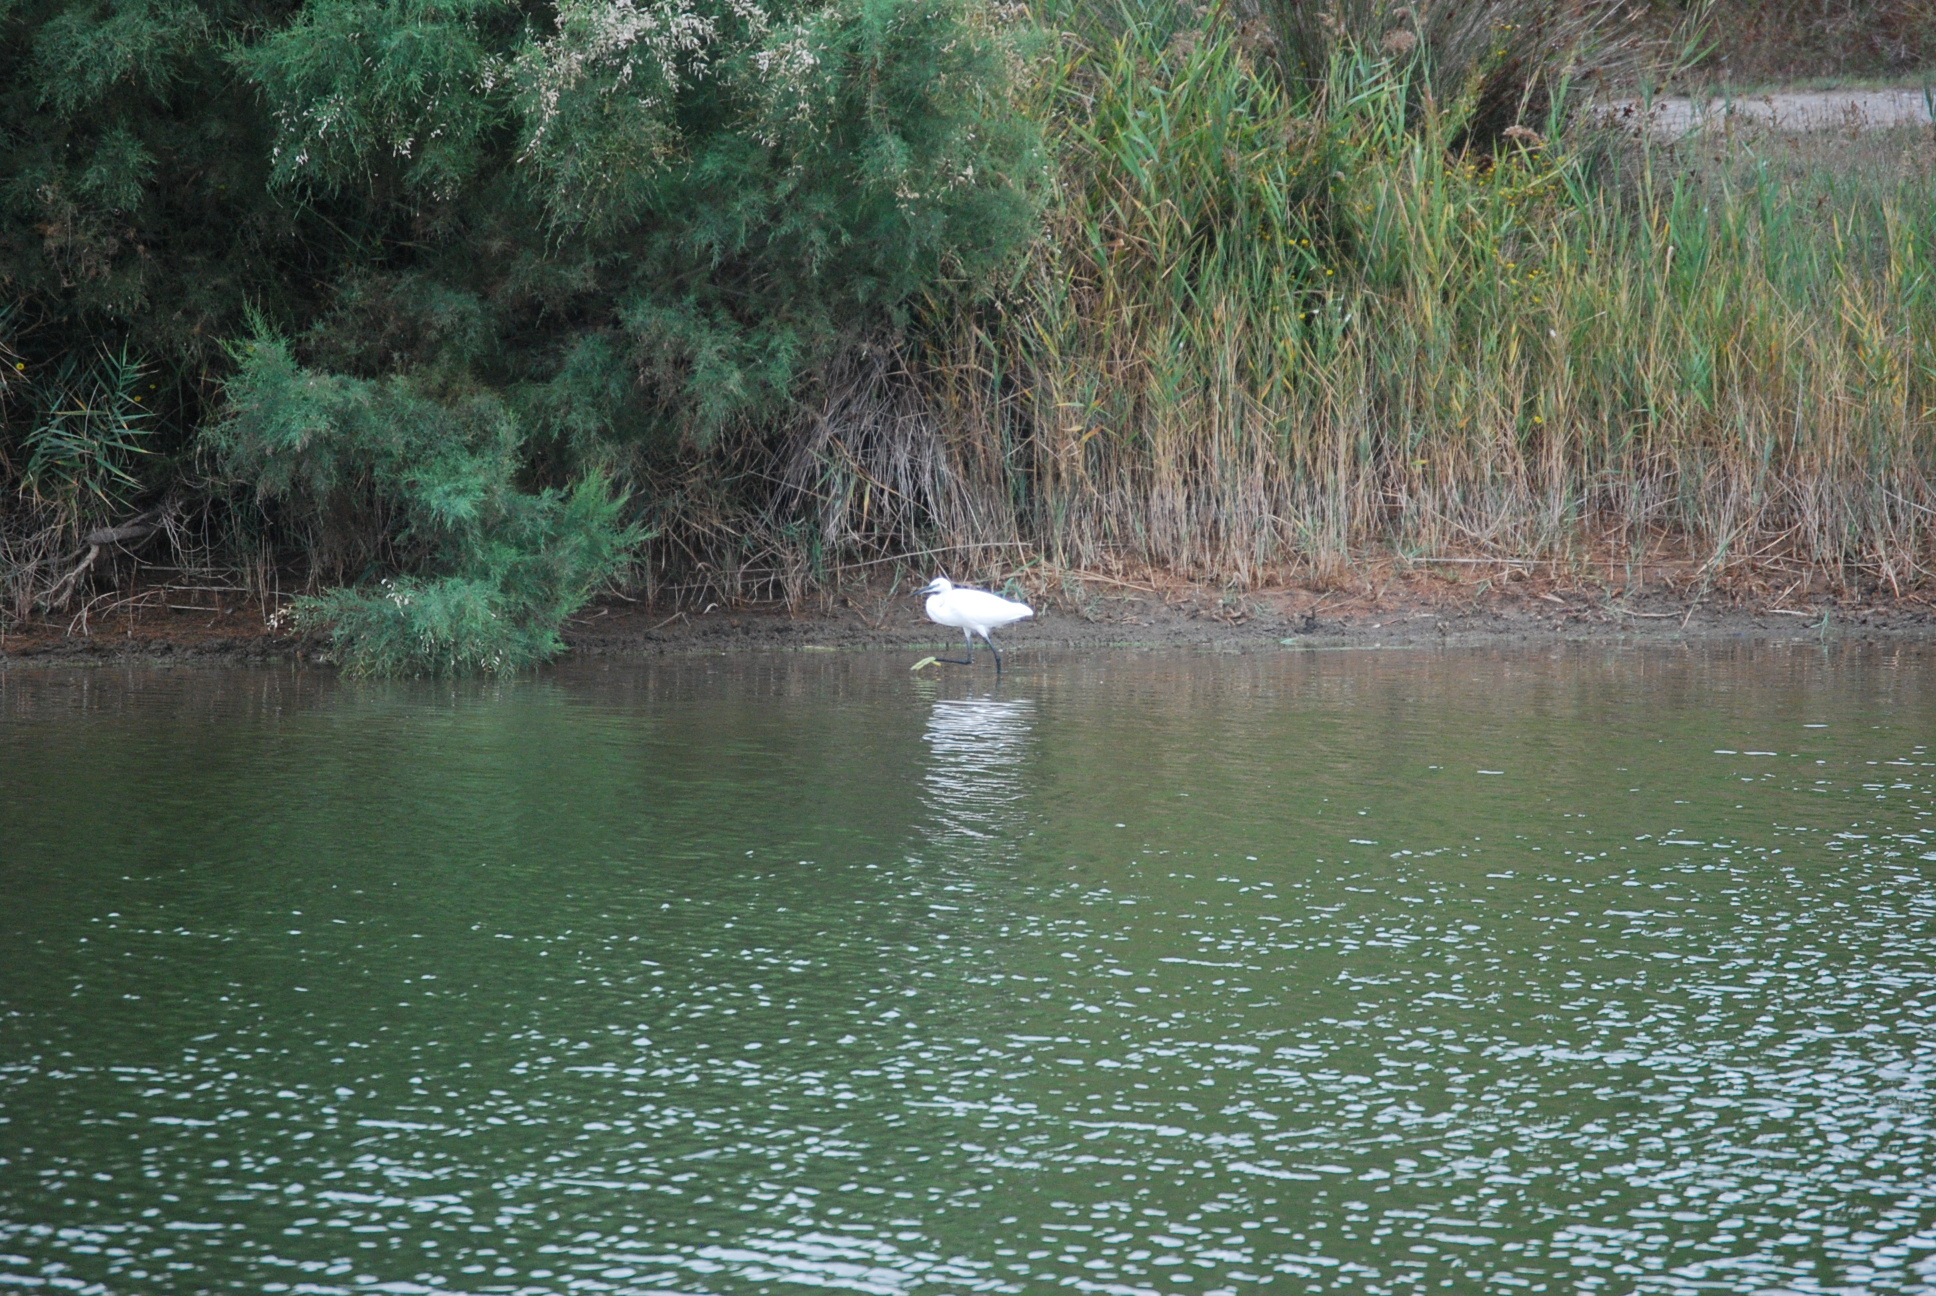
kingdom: Animalia
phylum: Chordata
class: Aves
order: Pelecaniformes
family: Ardeidae
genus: Egretta
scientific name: Egretta garzetta
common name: Little egret
